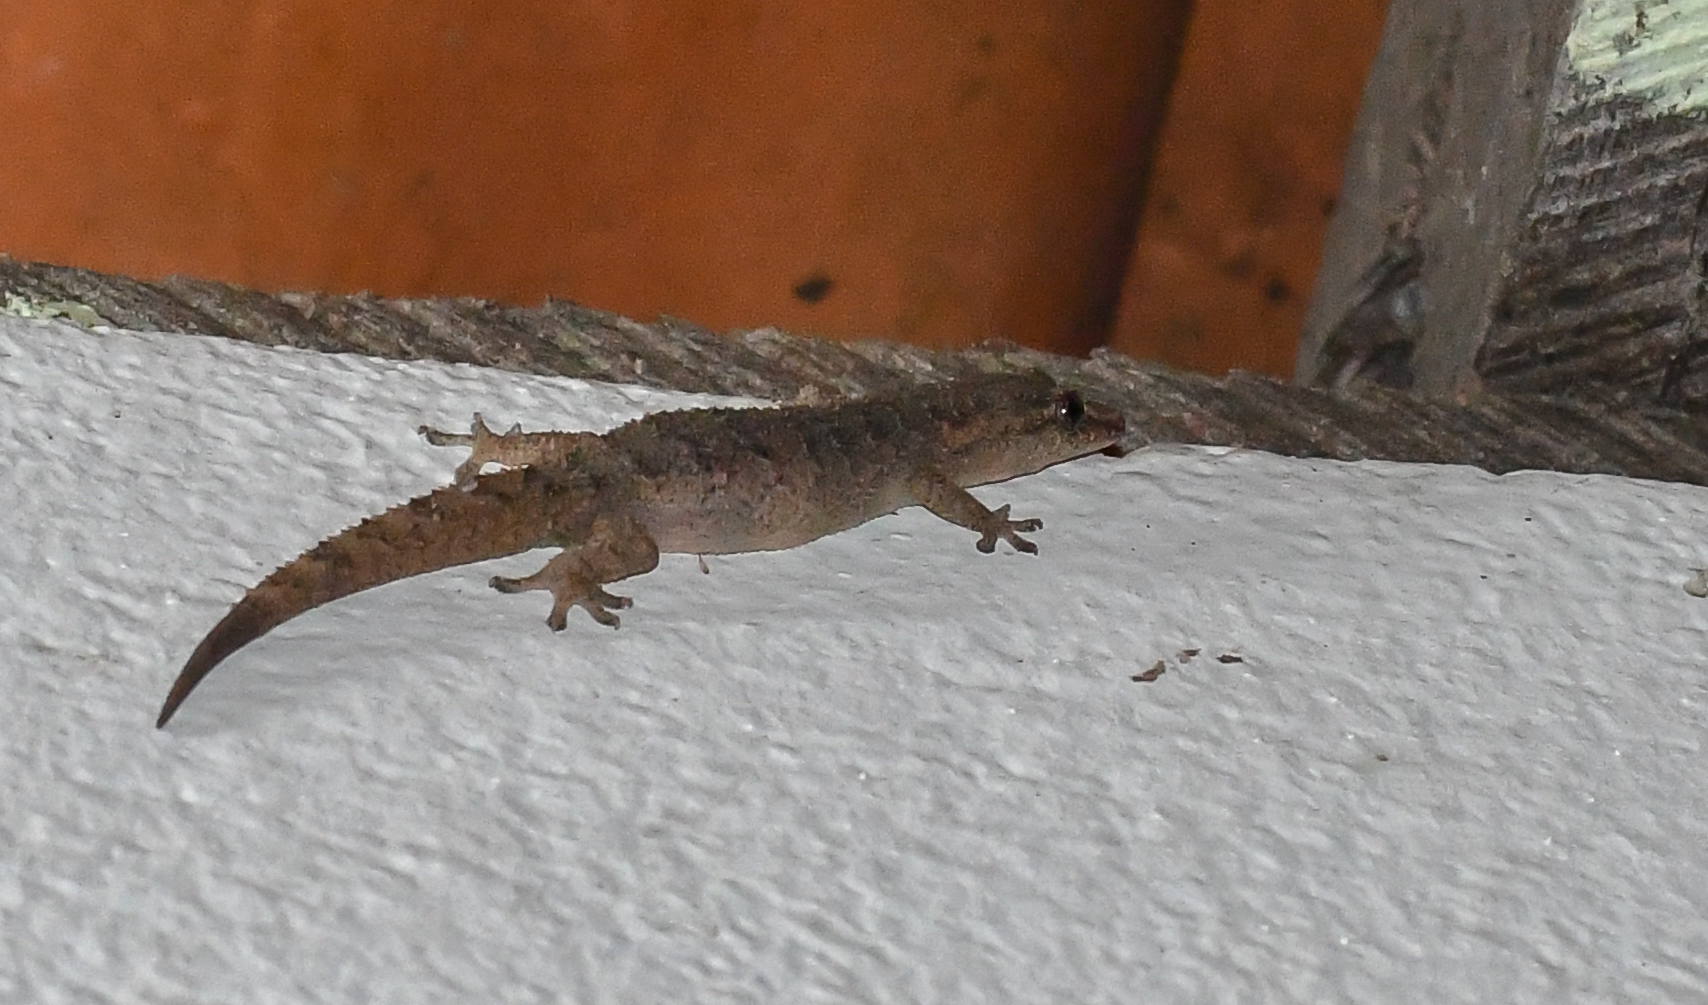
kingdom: Animalia
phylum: Chordata
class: Squamata
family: Gekkonidae
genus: Hemidactylus
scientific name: Hemidactylus palaichthus
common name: Antilles leaf-toed gecko
